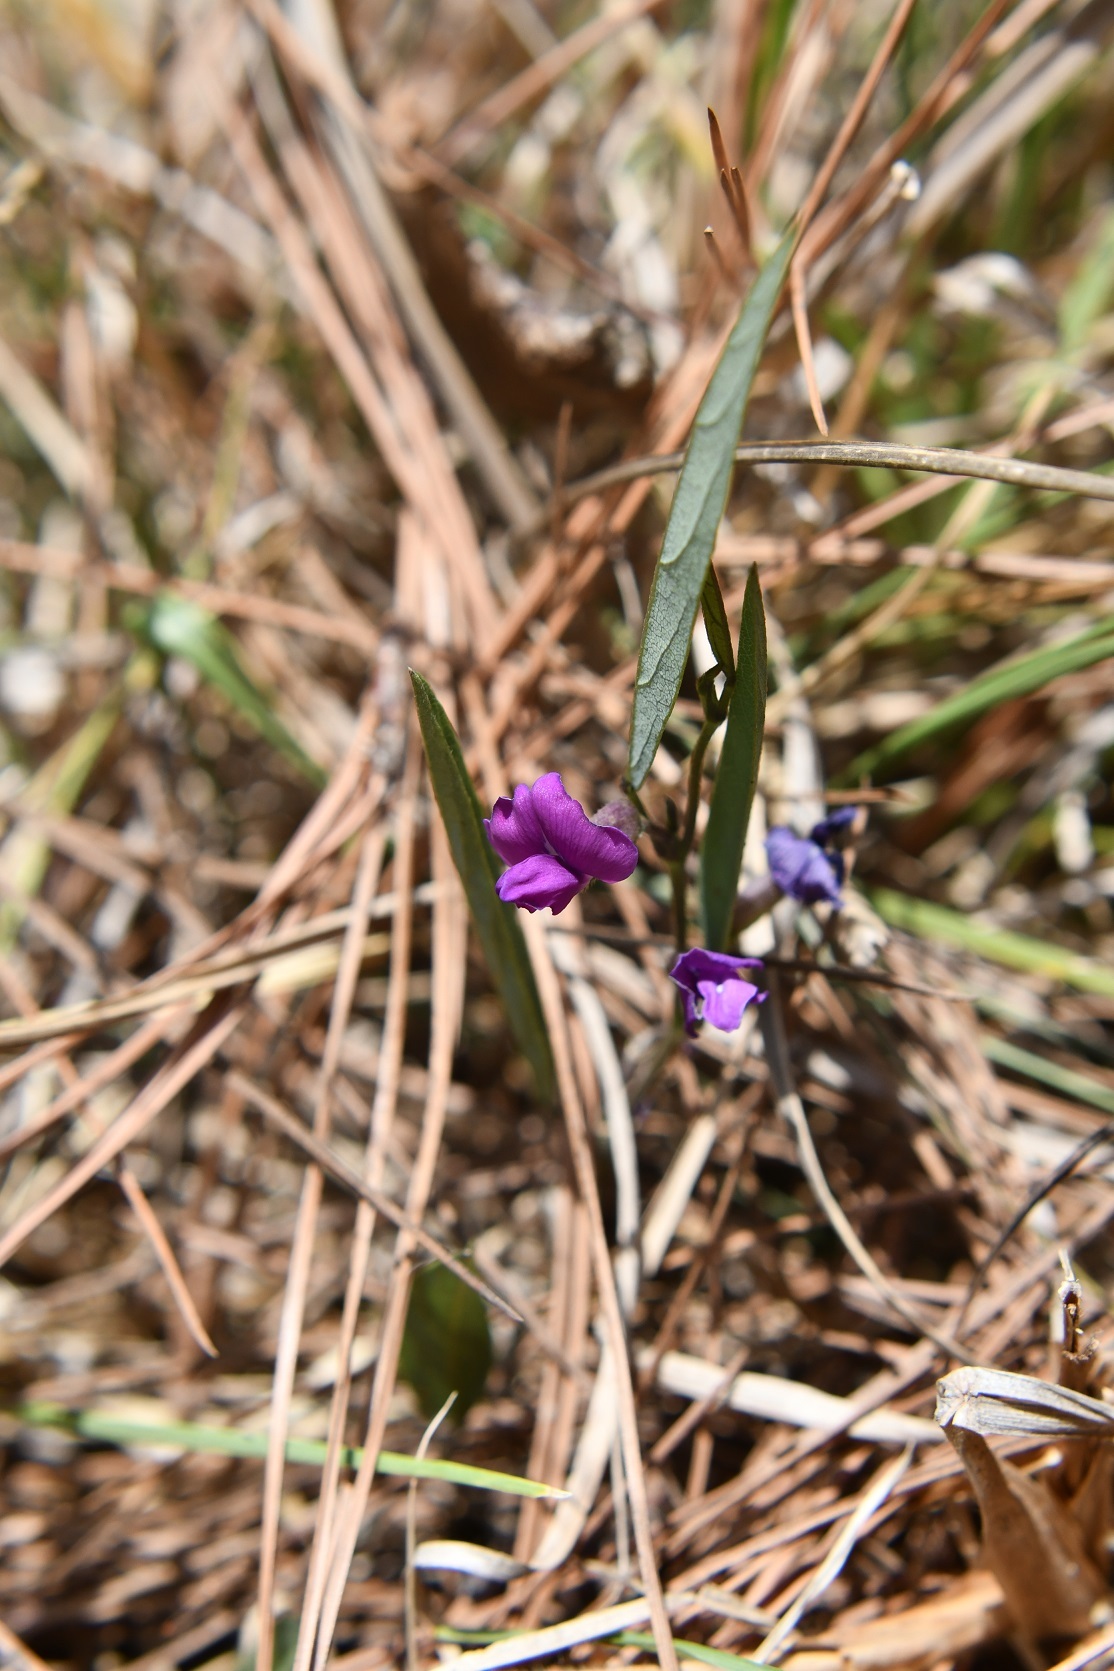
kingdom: Plantae
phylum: Tracheophyta
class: Magnoliopsida
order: Fabales
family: Fabaceae
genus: Cologania
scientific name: Cologania broussonetii
